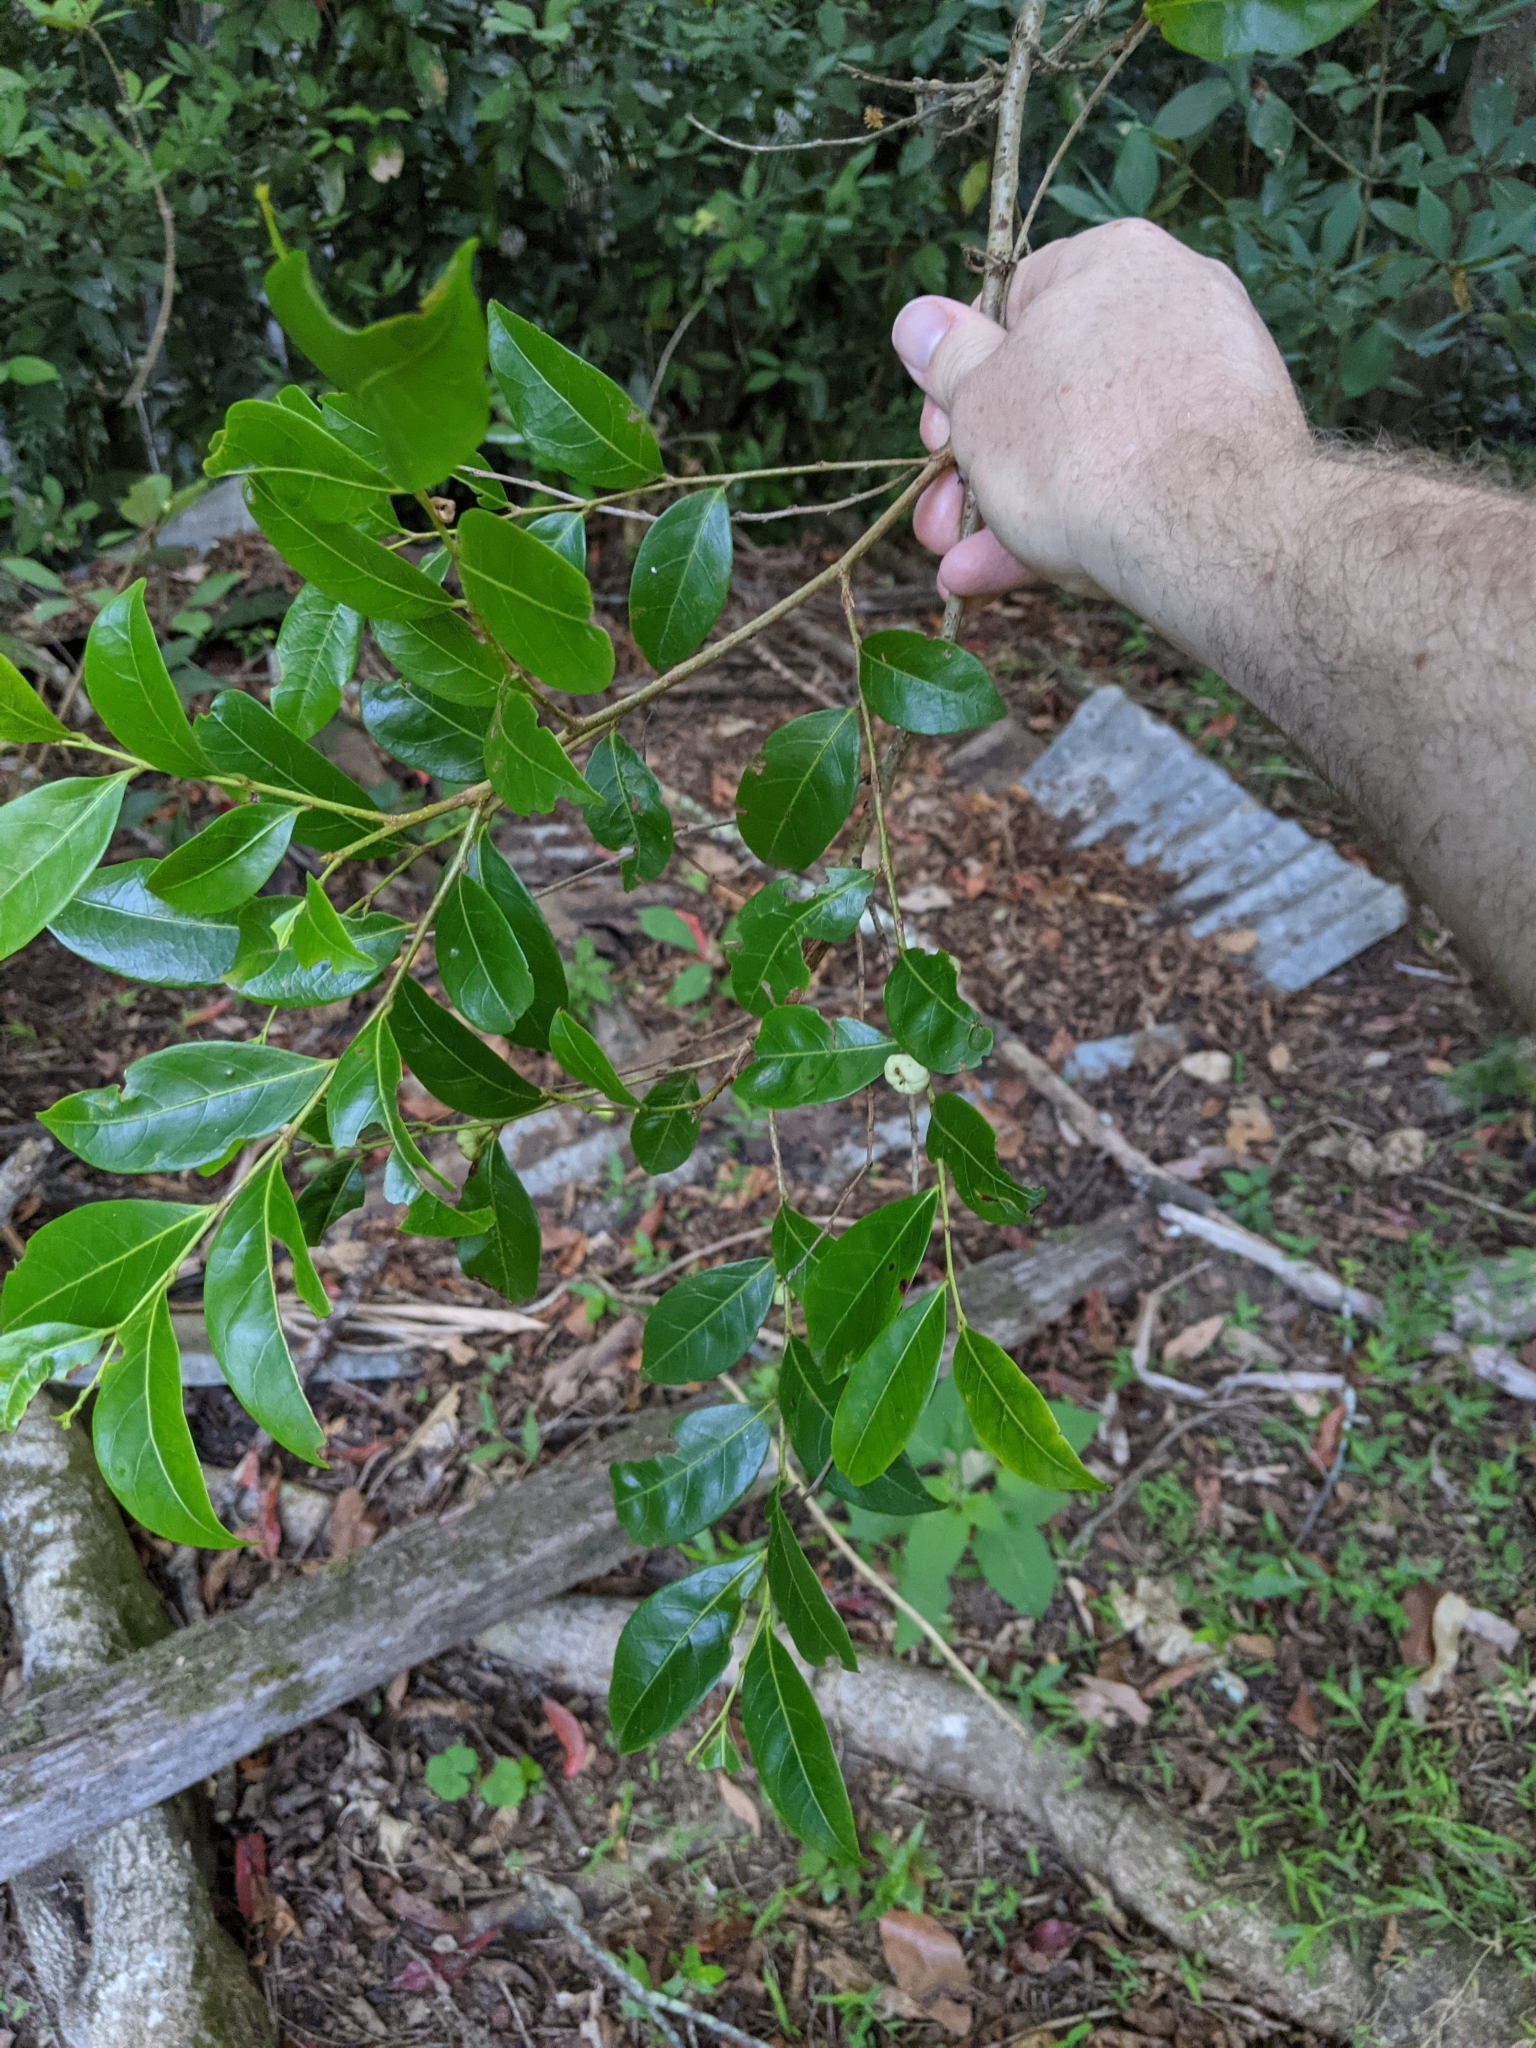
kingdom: Plantae
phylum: Tracheophyta
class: Magnoliopsida
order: Malpighiales
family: Phyllanthaceae
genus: Glochidion
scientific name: Glochidion ferdinandi
